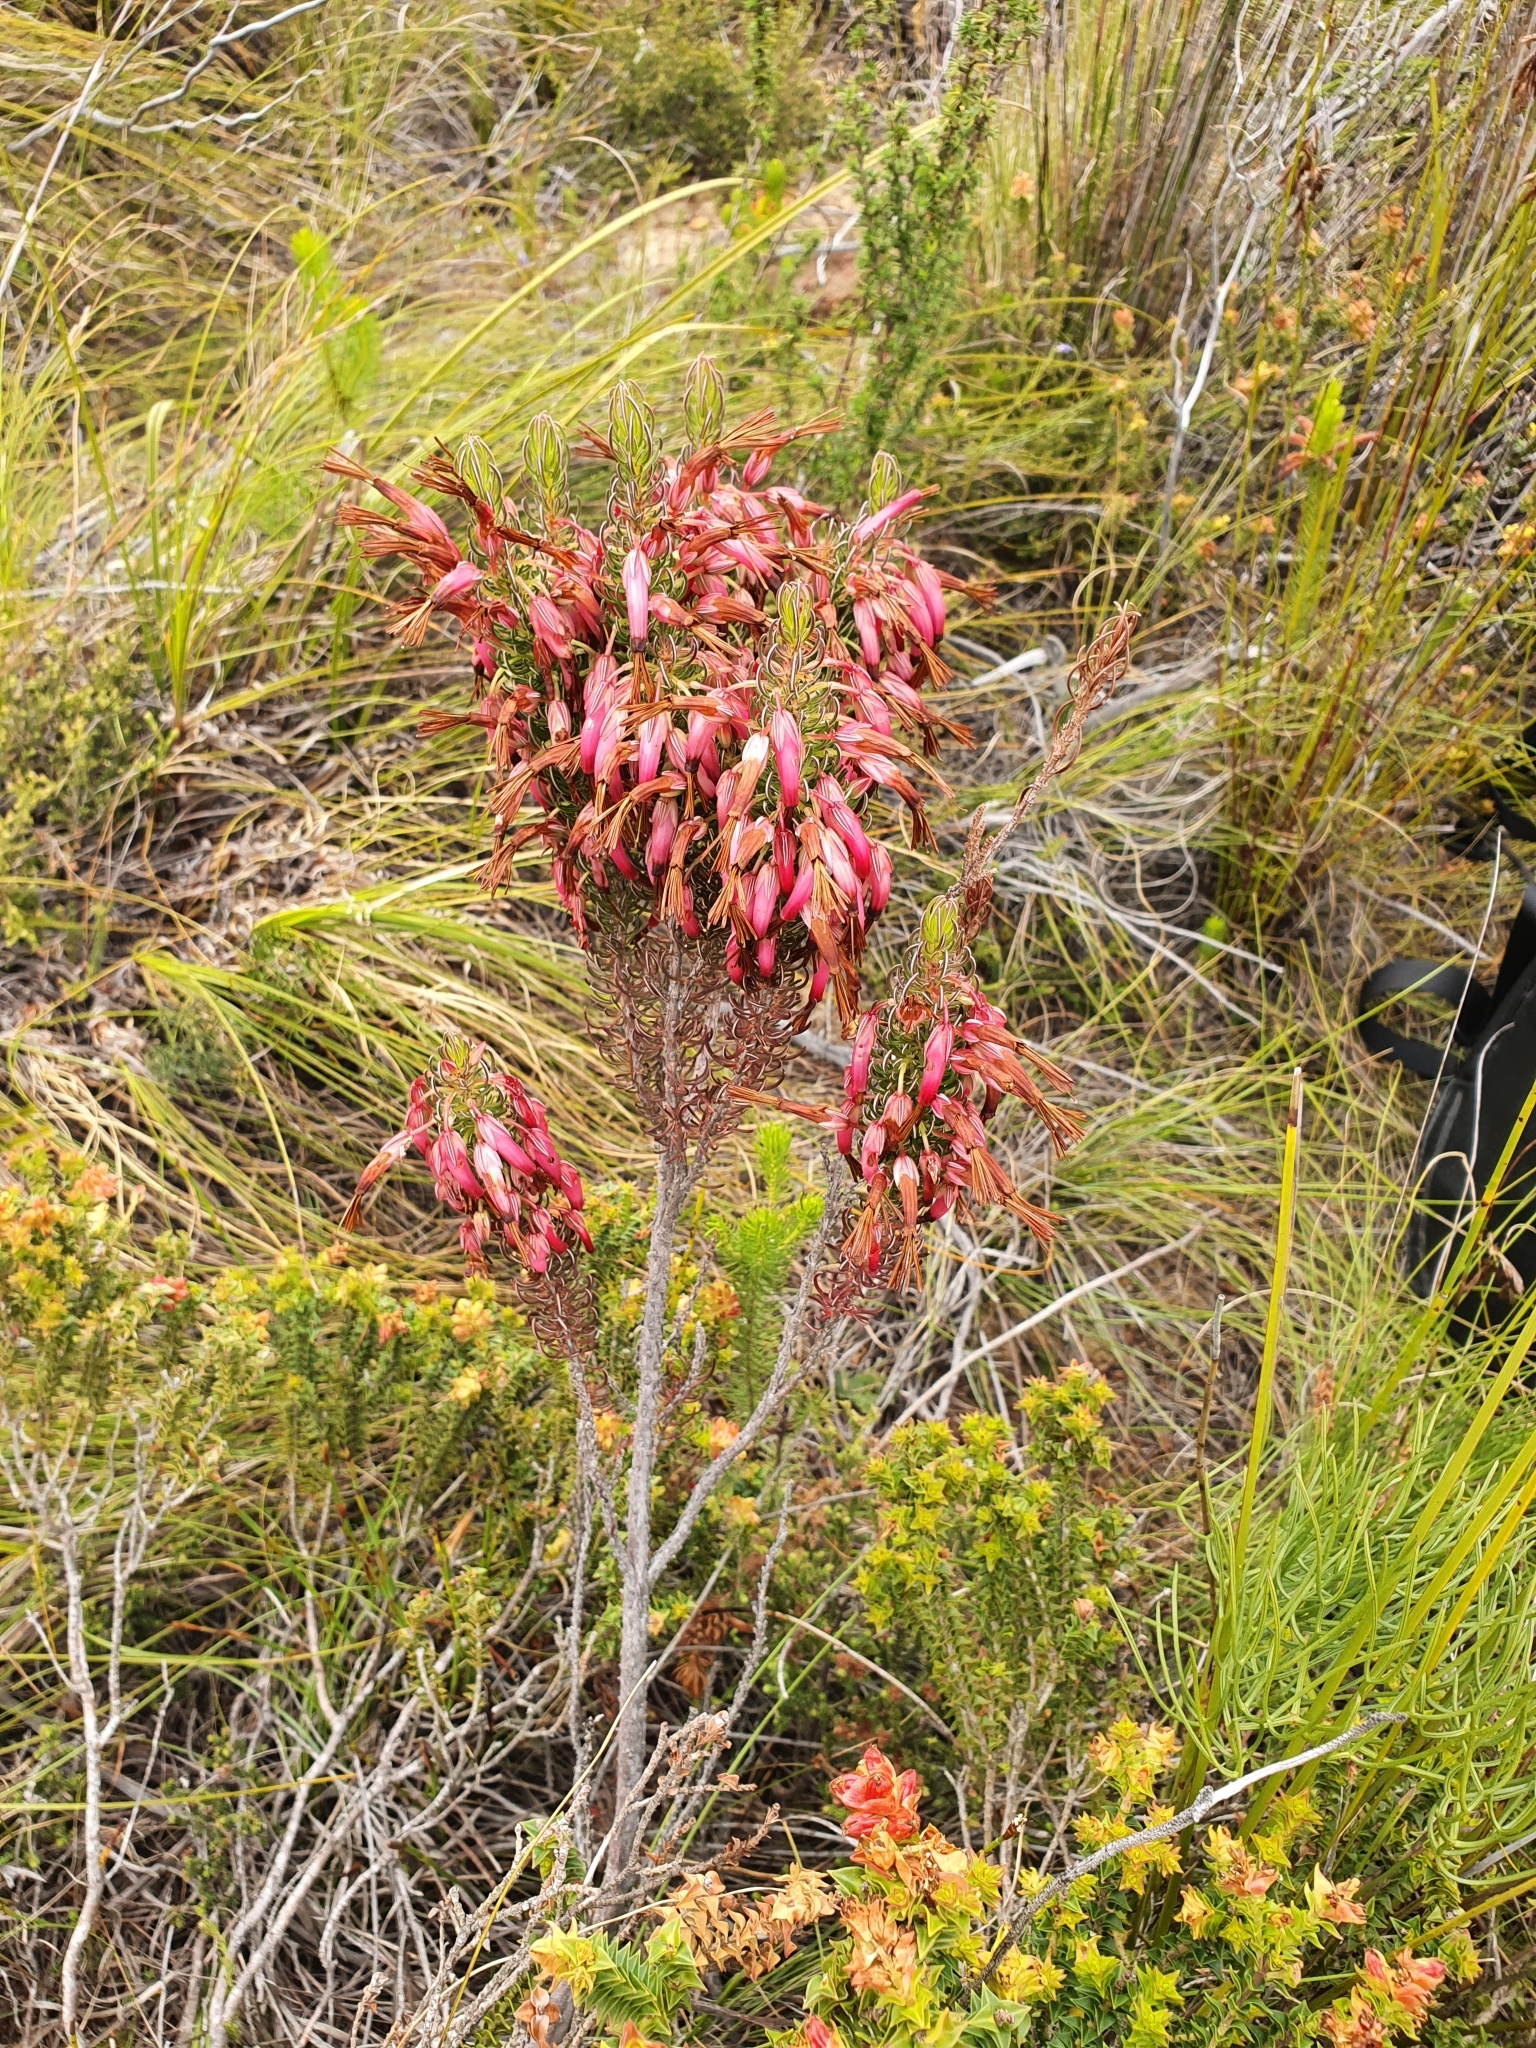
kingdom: Plantae
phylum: Tracheophyta
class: Magnoliopsida
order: Ericales
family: Ericaceae
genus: Erica
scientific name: Erica plukenetii
